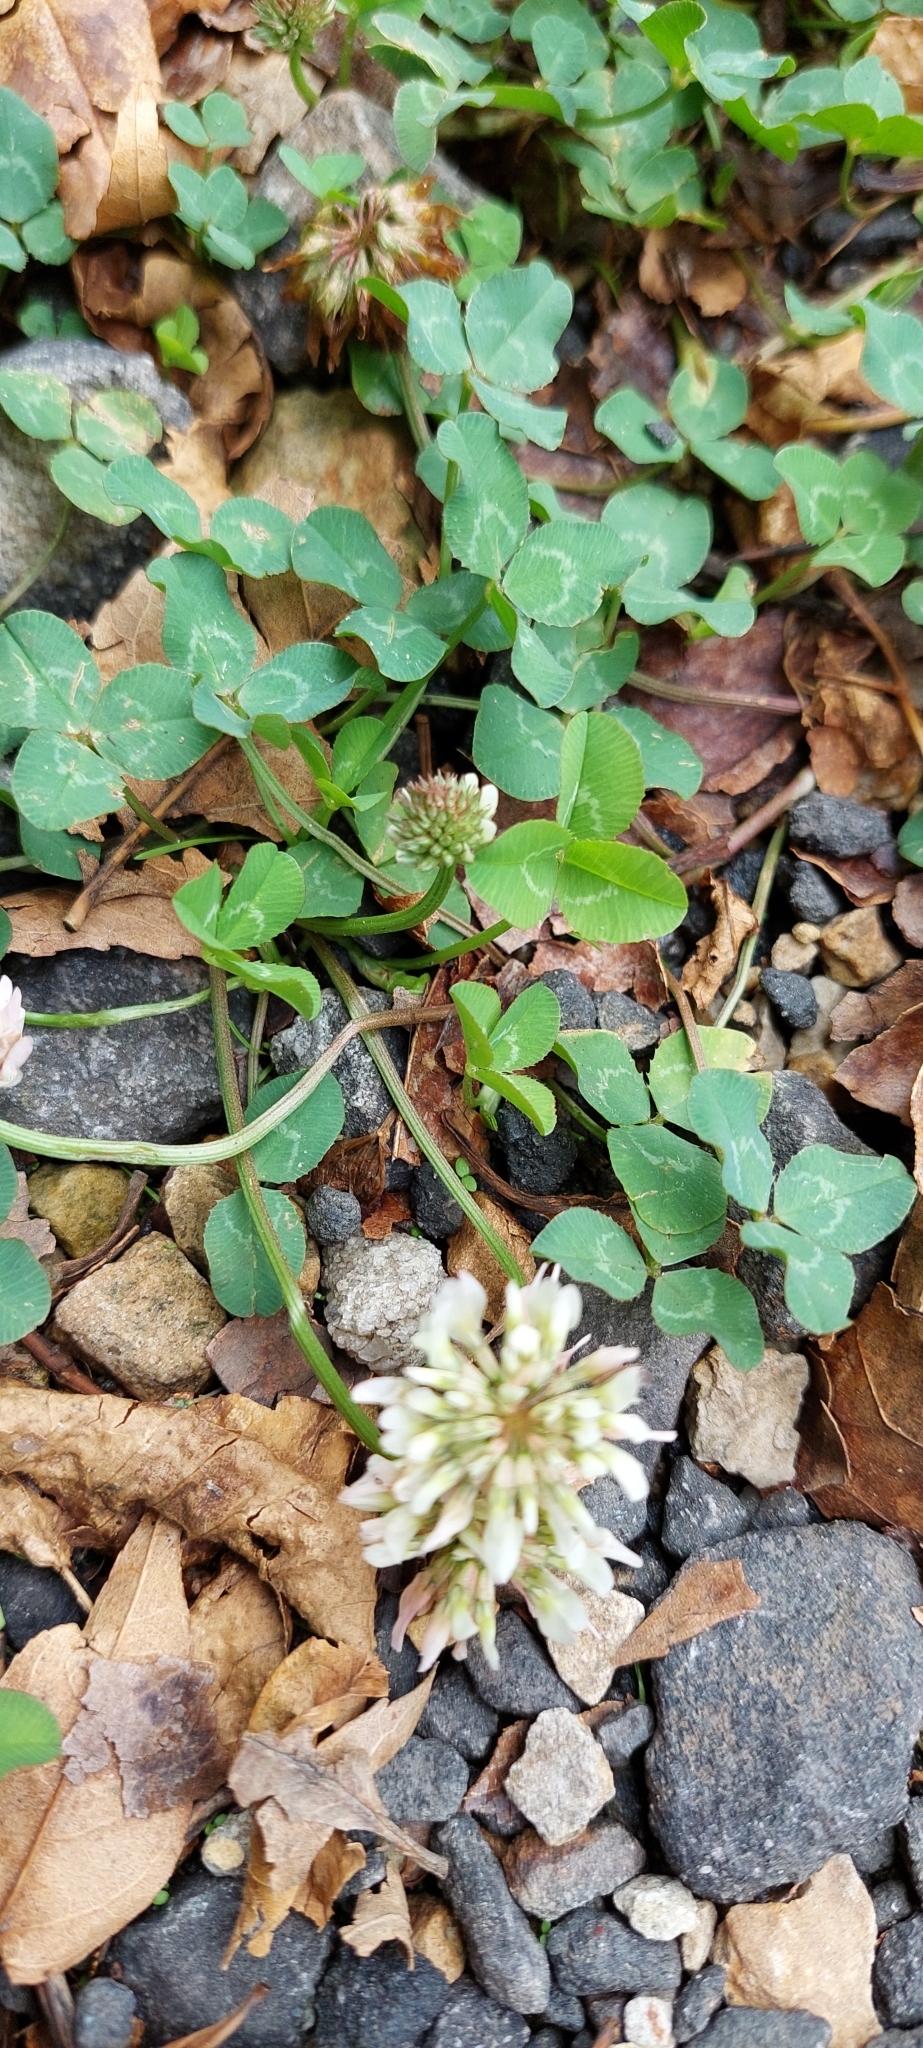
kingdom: Plantae
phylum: Tracheophyta
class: Magnoliopsida
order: Fabales
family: Fabaceae
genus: Trifolium
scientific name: Trifolium repens
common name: White clover
